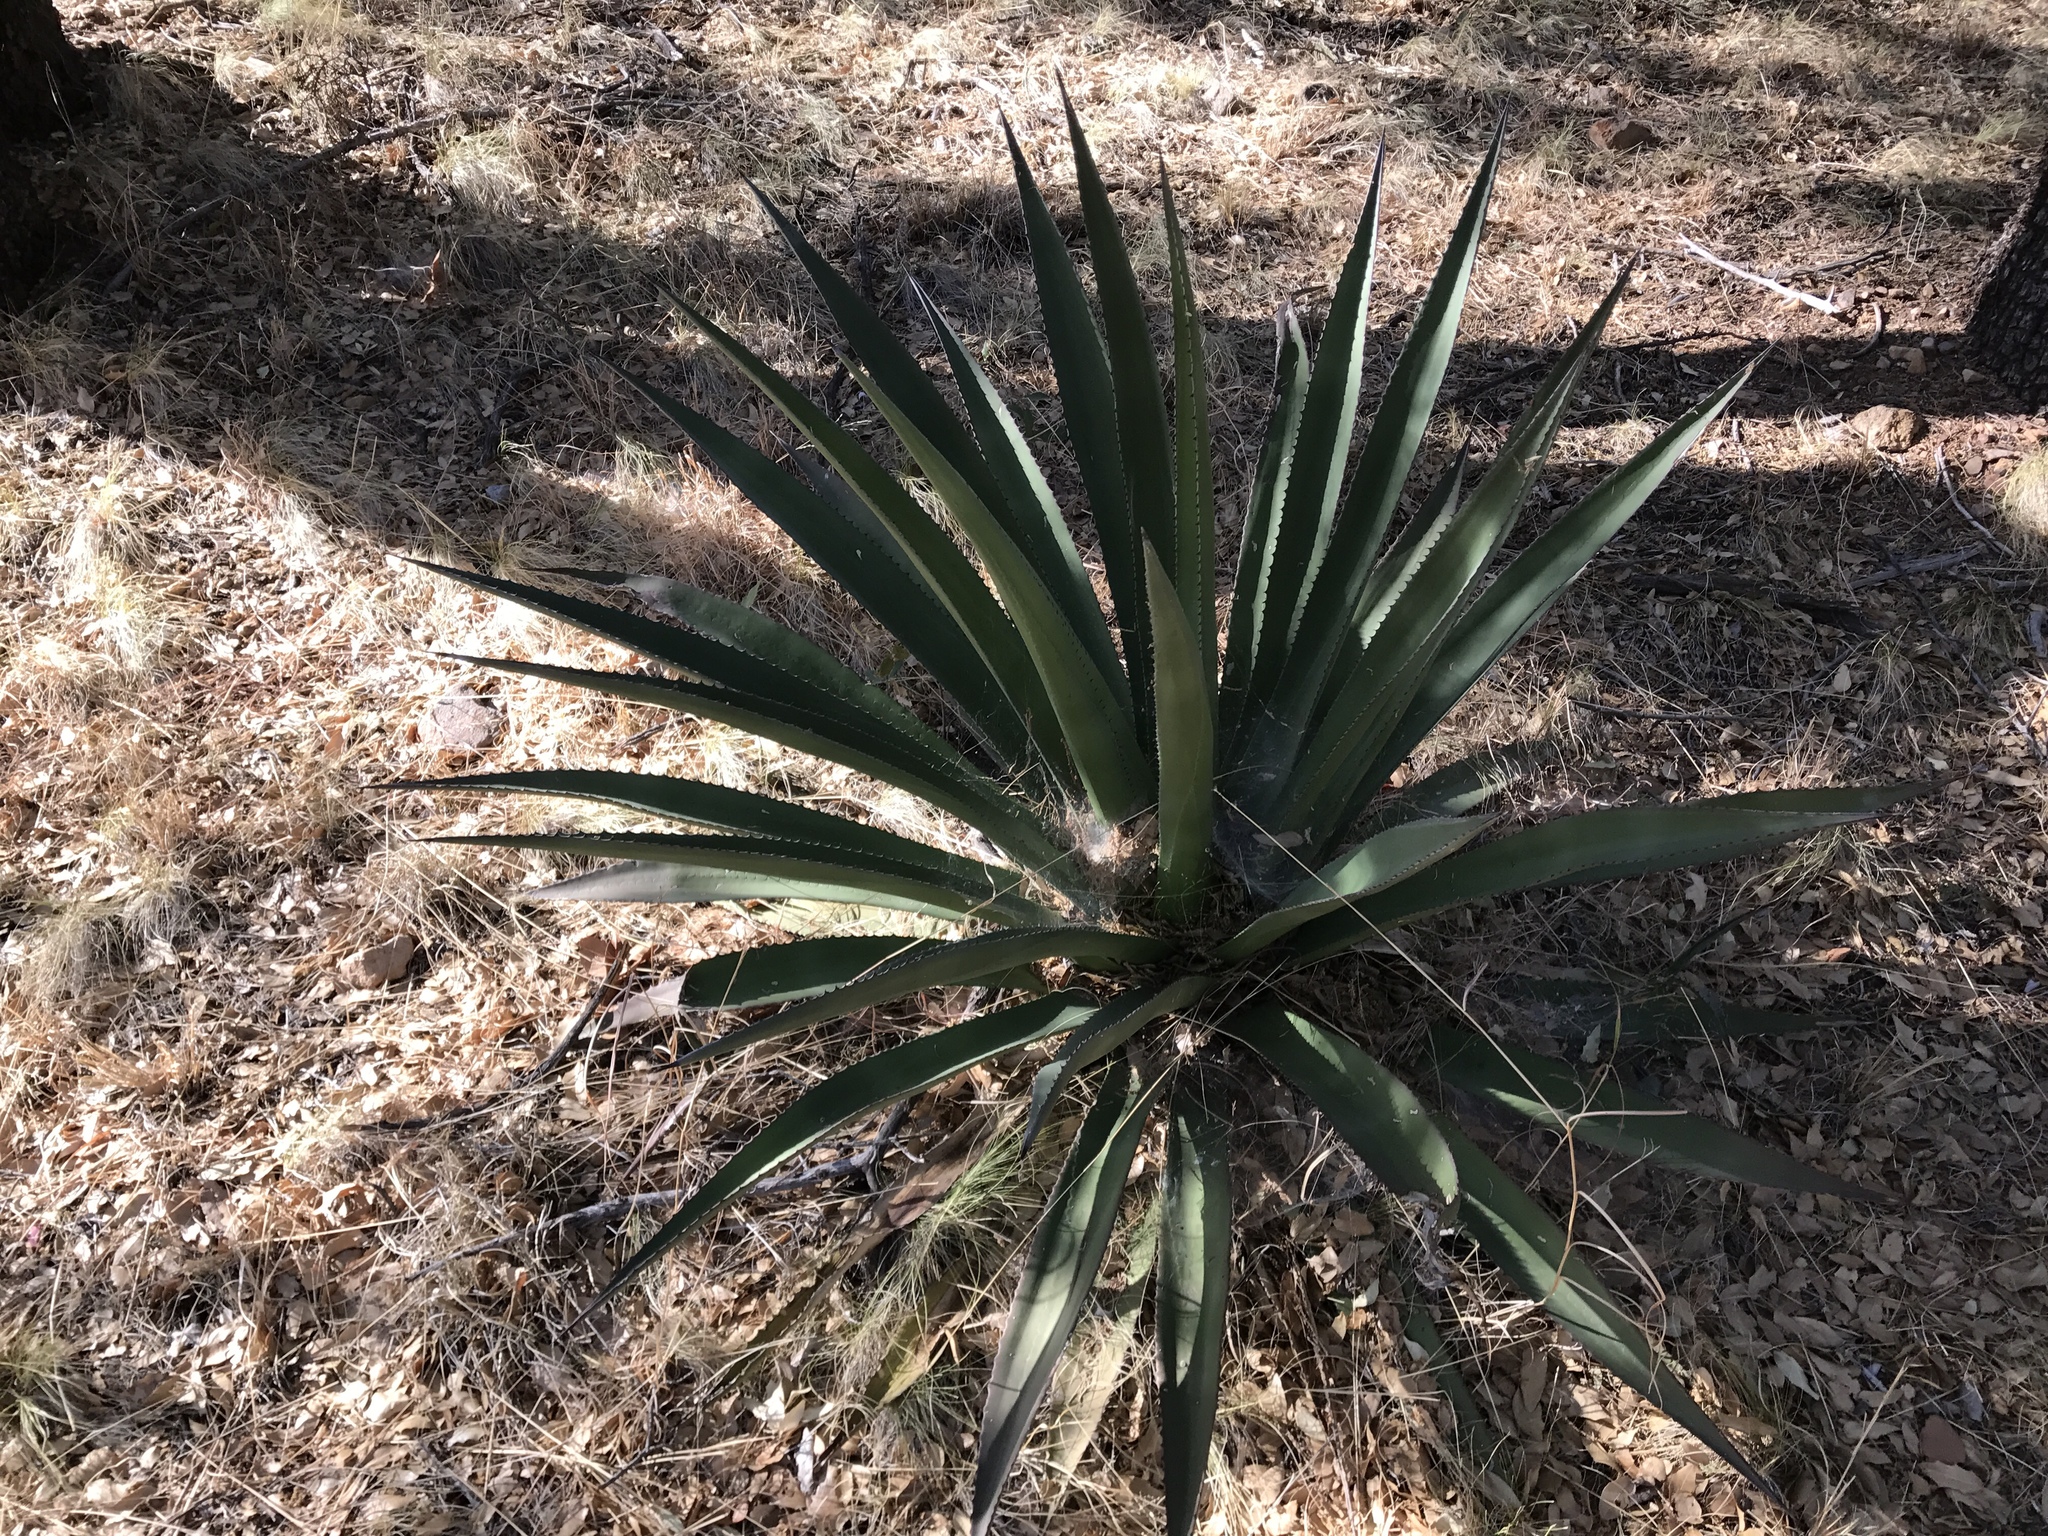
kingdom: Plantae
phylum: Tracheophyta
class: Liliopsida
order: Asparagales
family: Asparagaceae
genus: Agave
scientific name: Agave palmeri
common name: Palmer agave
